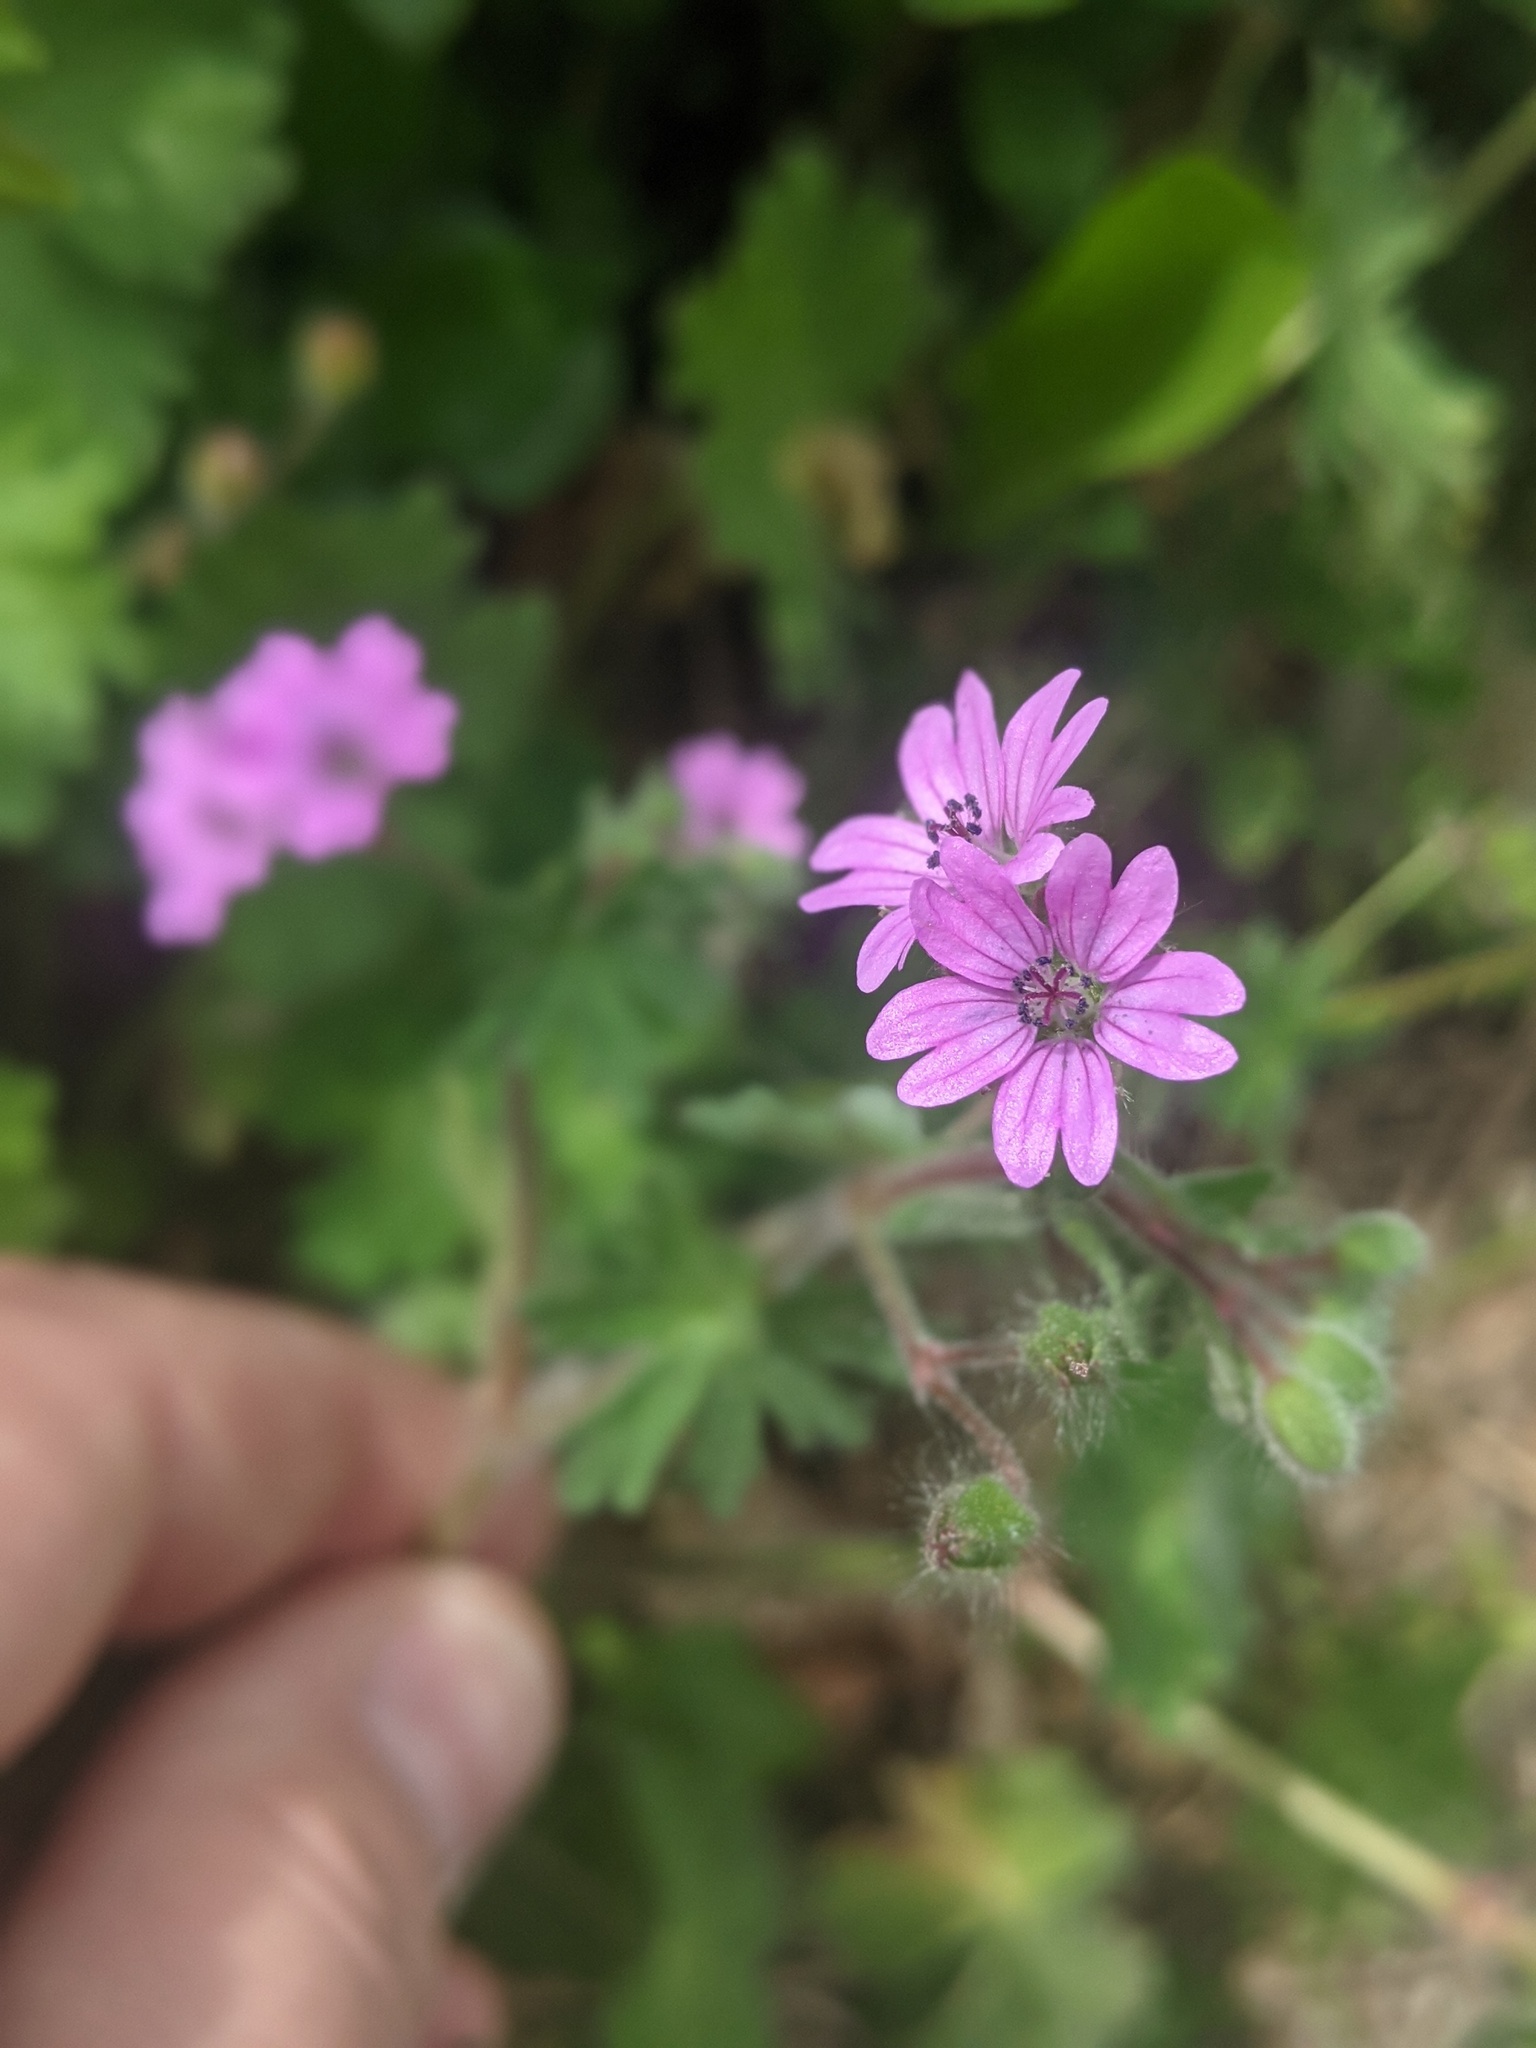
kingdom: Plantae
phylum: Tracheophyta
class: Magnoliopsida
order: Geraniales
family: Geraniaceae
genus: Geranium
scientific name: Geranium molle
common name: Dove's-foot crane's-bill
